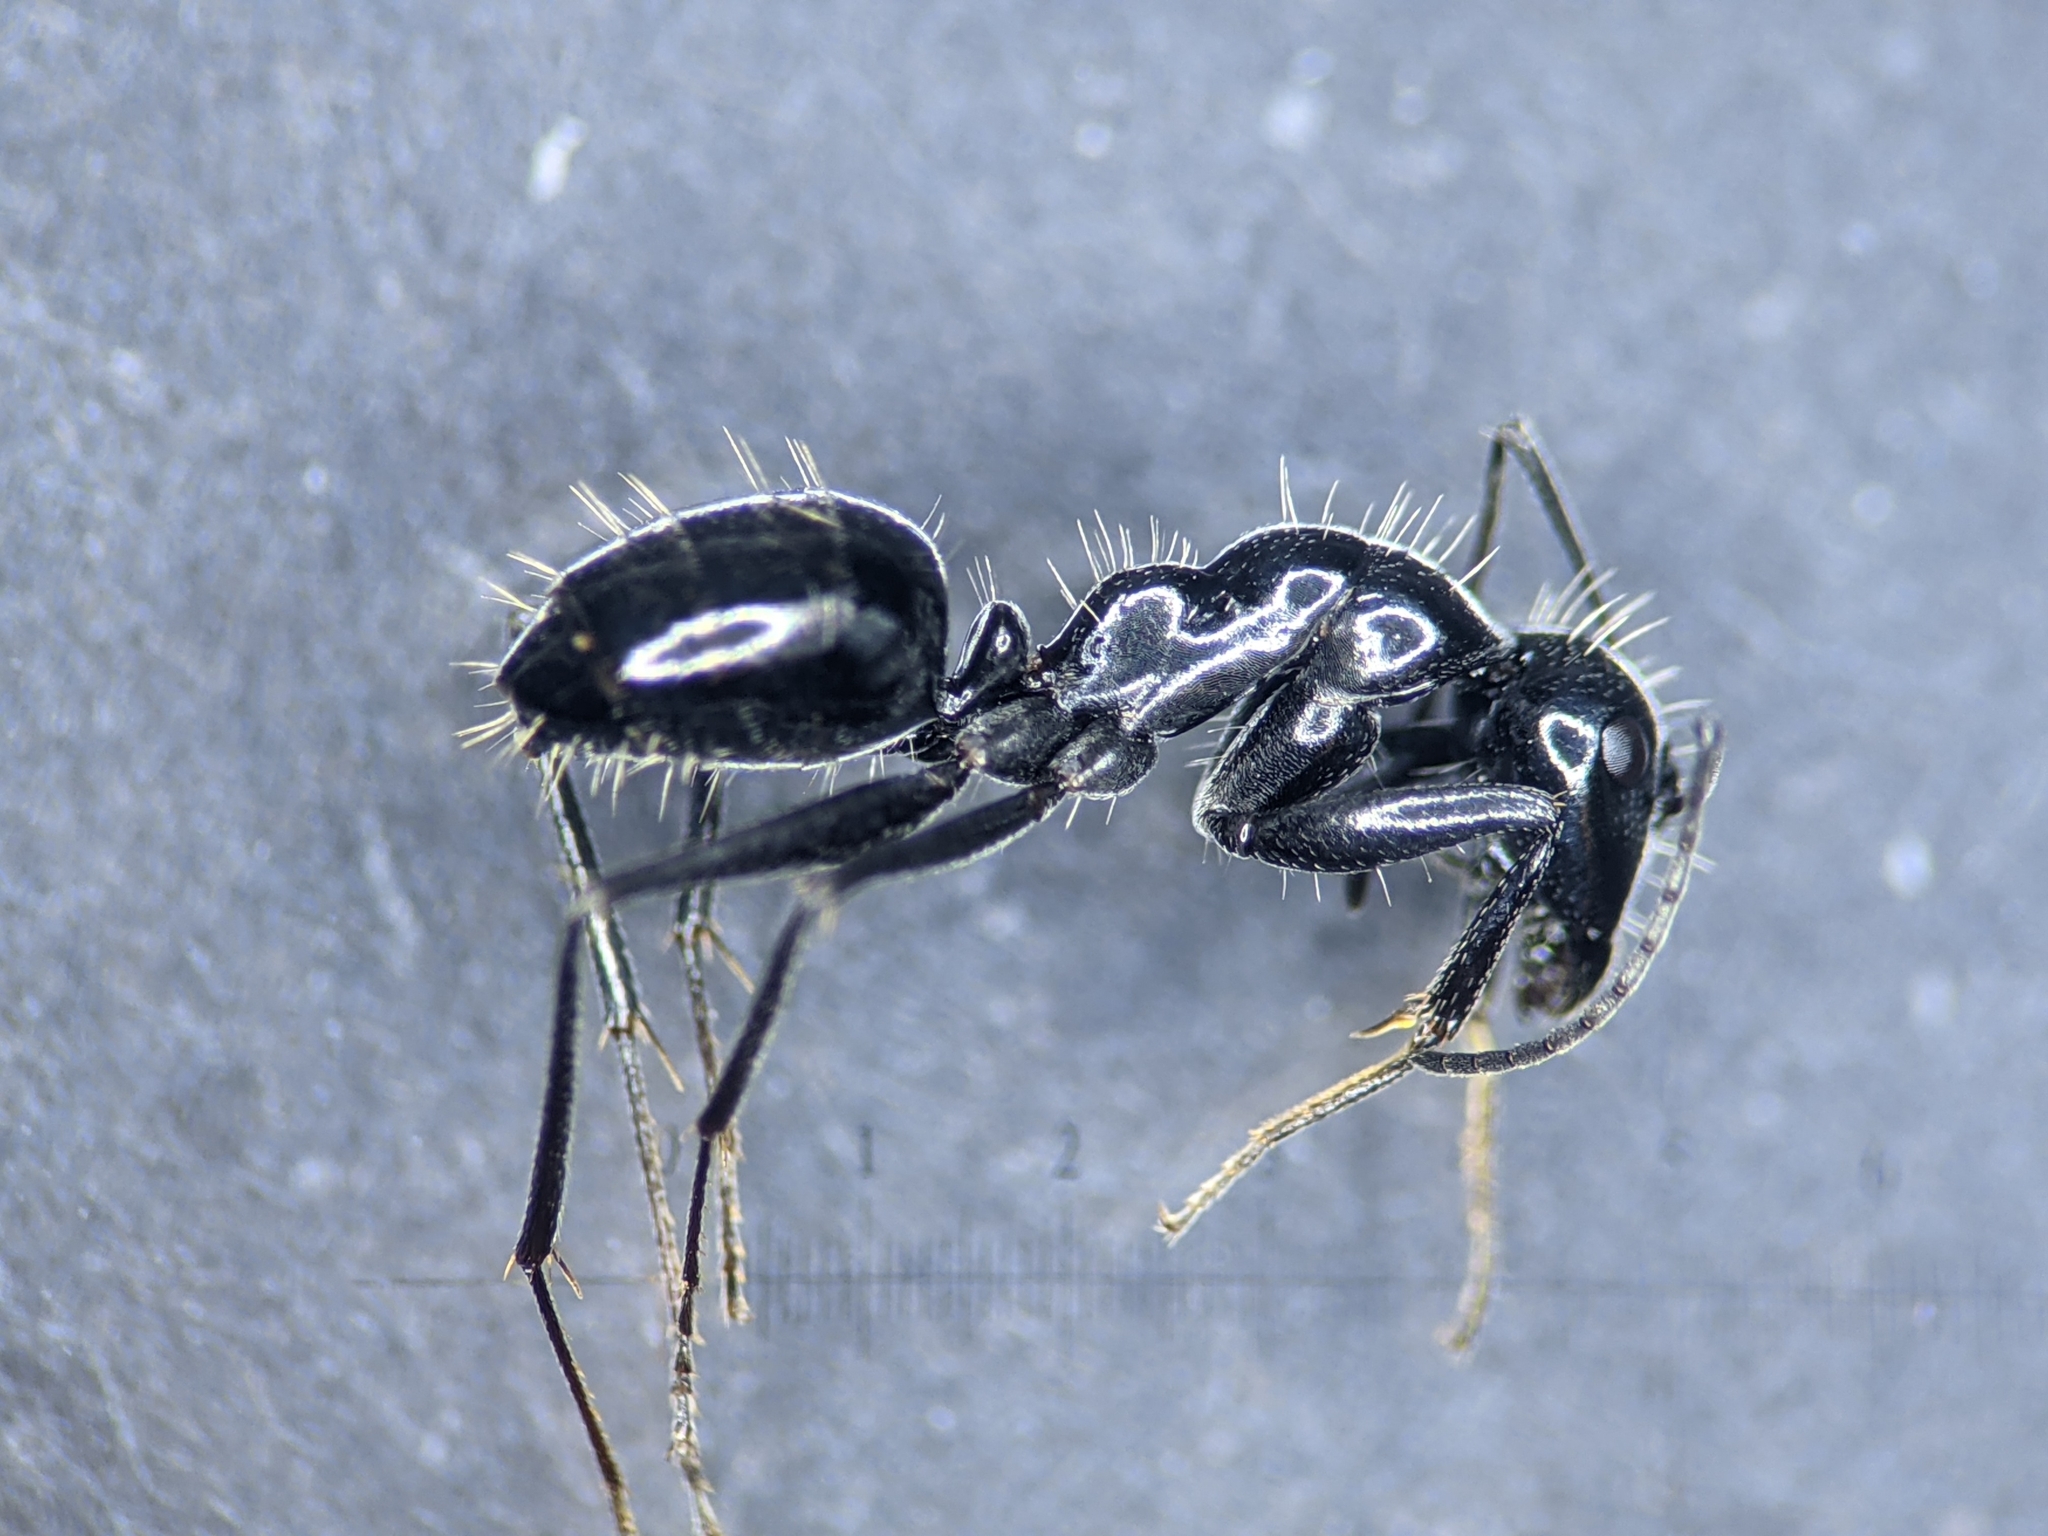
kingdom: Animalia
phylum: Arthropoda
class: Insecta
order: Hymenoptera
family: Formicidae
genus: Camponotus
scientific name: Camponotus foreli
